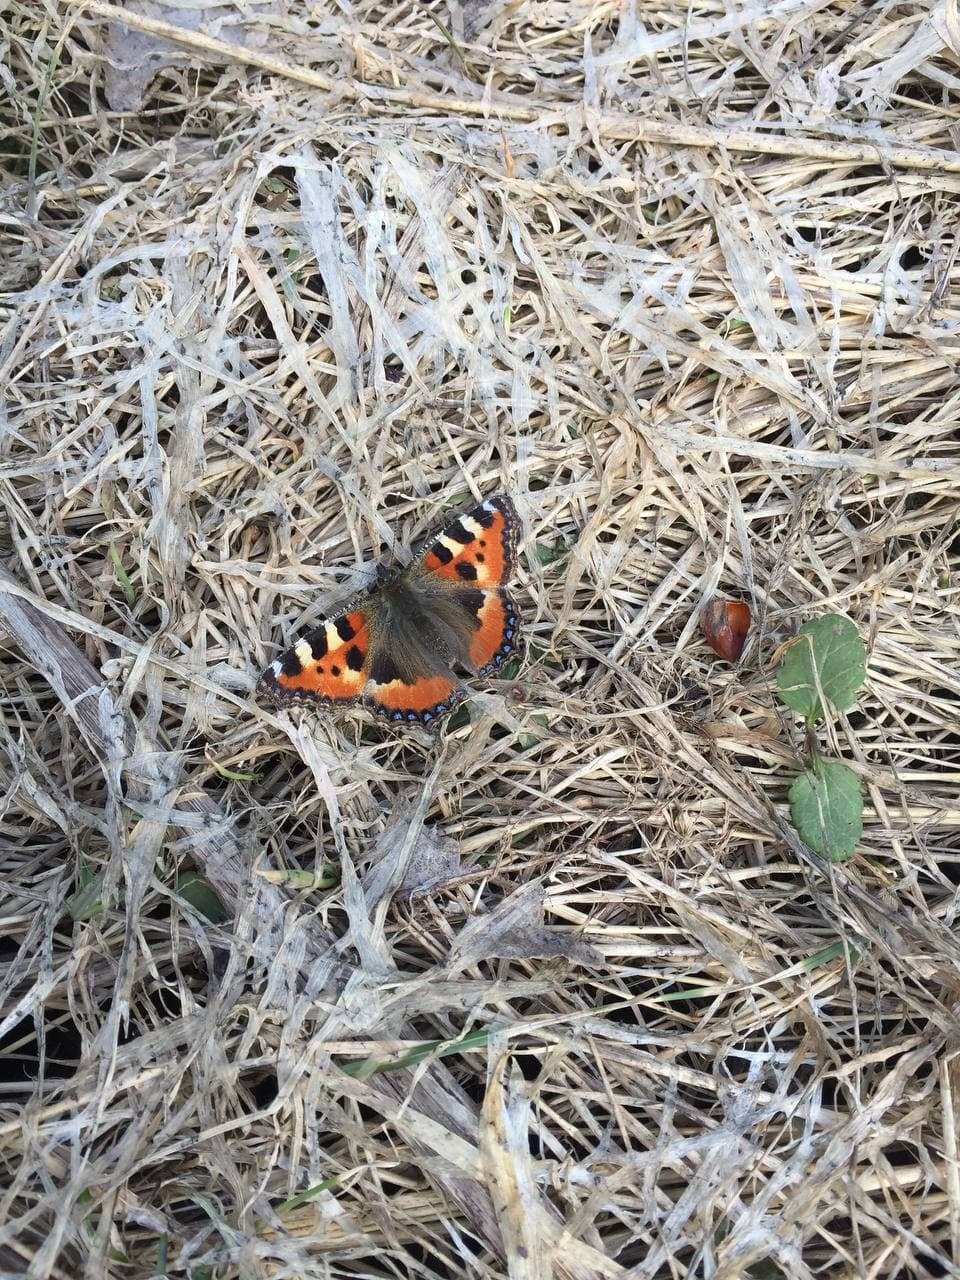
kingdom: Animalia
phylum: Arthropoda
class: Insecta
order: Lepidoptera
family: Nymphalidae
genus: Aglais
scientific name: Aglais urticae
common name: Small tortoiseshell
